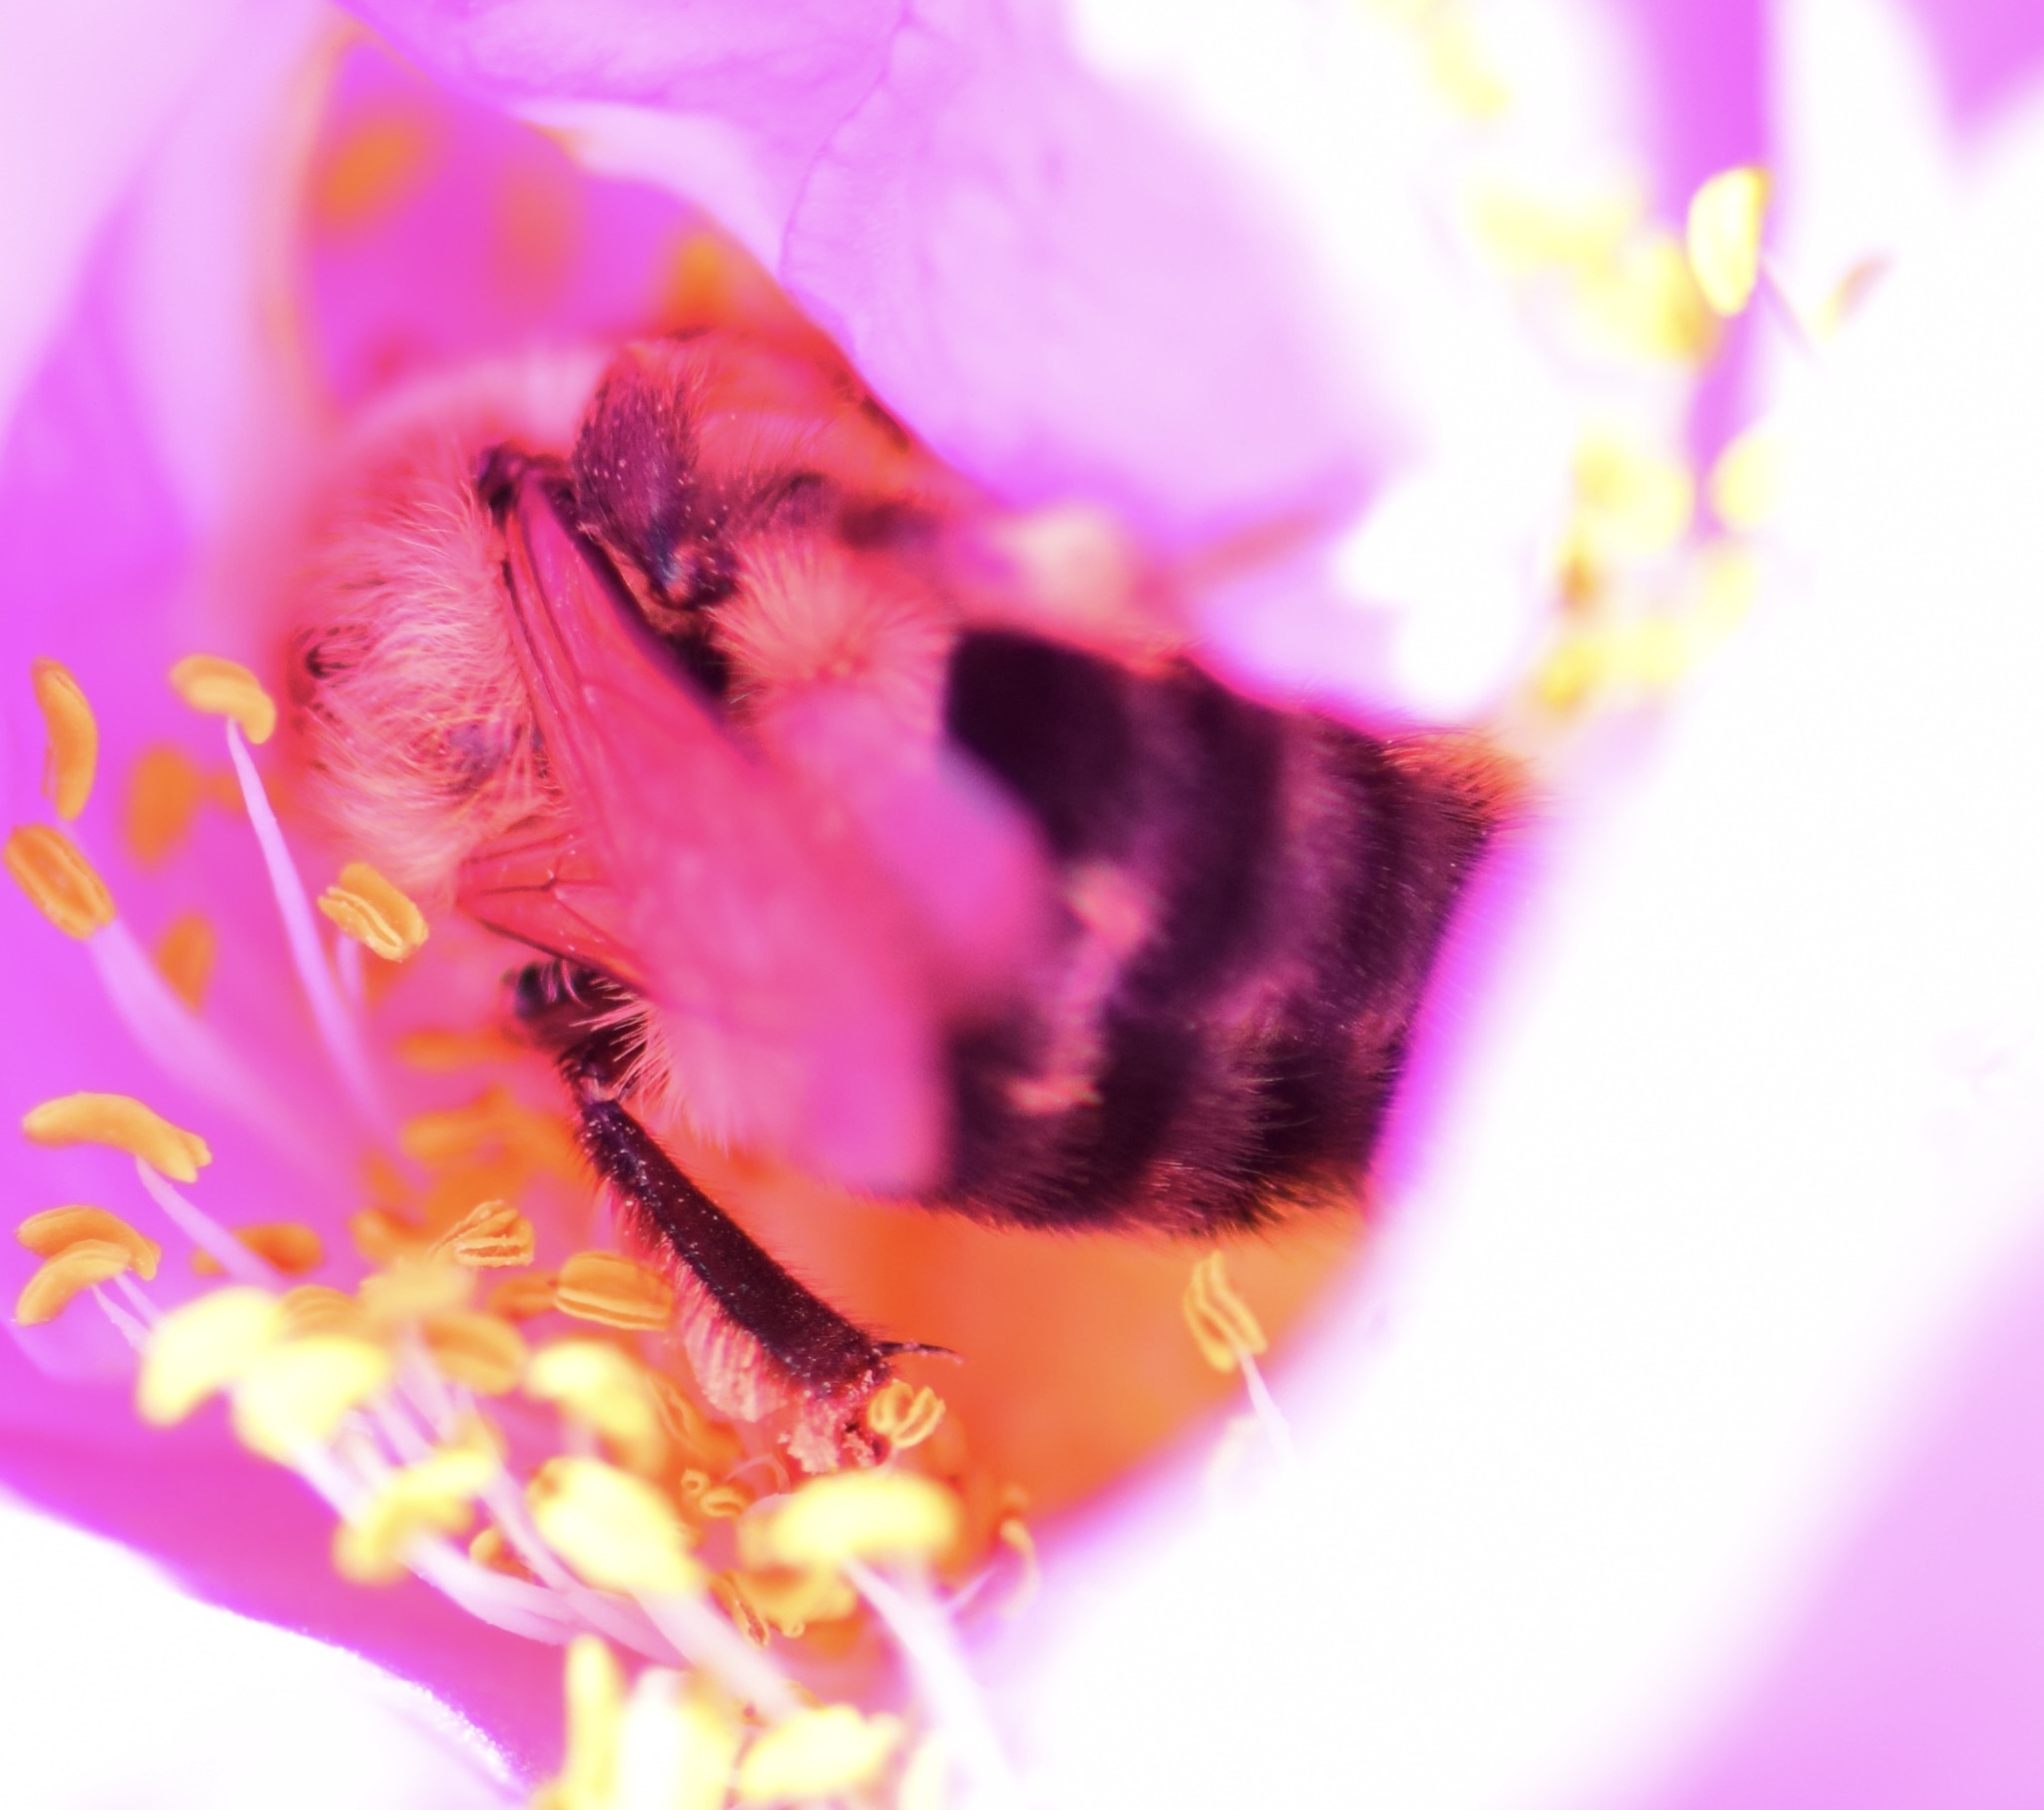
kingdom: Animalia
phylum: Arthropoda
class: Insecta
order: Hymenoptera
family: Apidae
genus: Bombus
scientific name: Bombus impatiens
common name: Common eastern bumble bee
